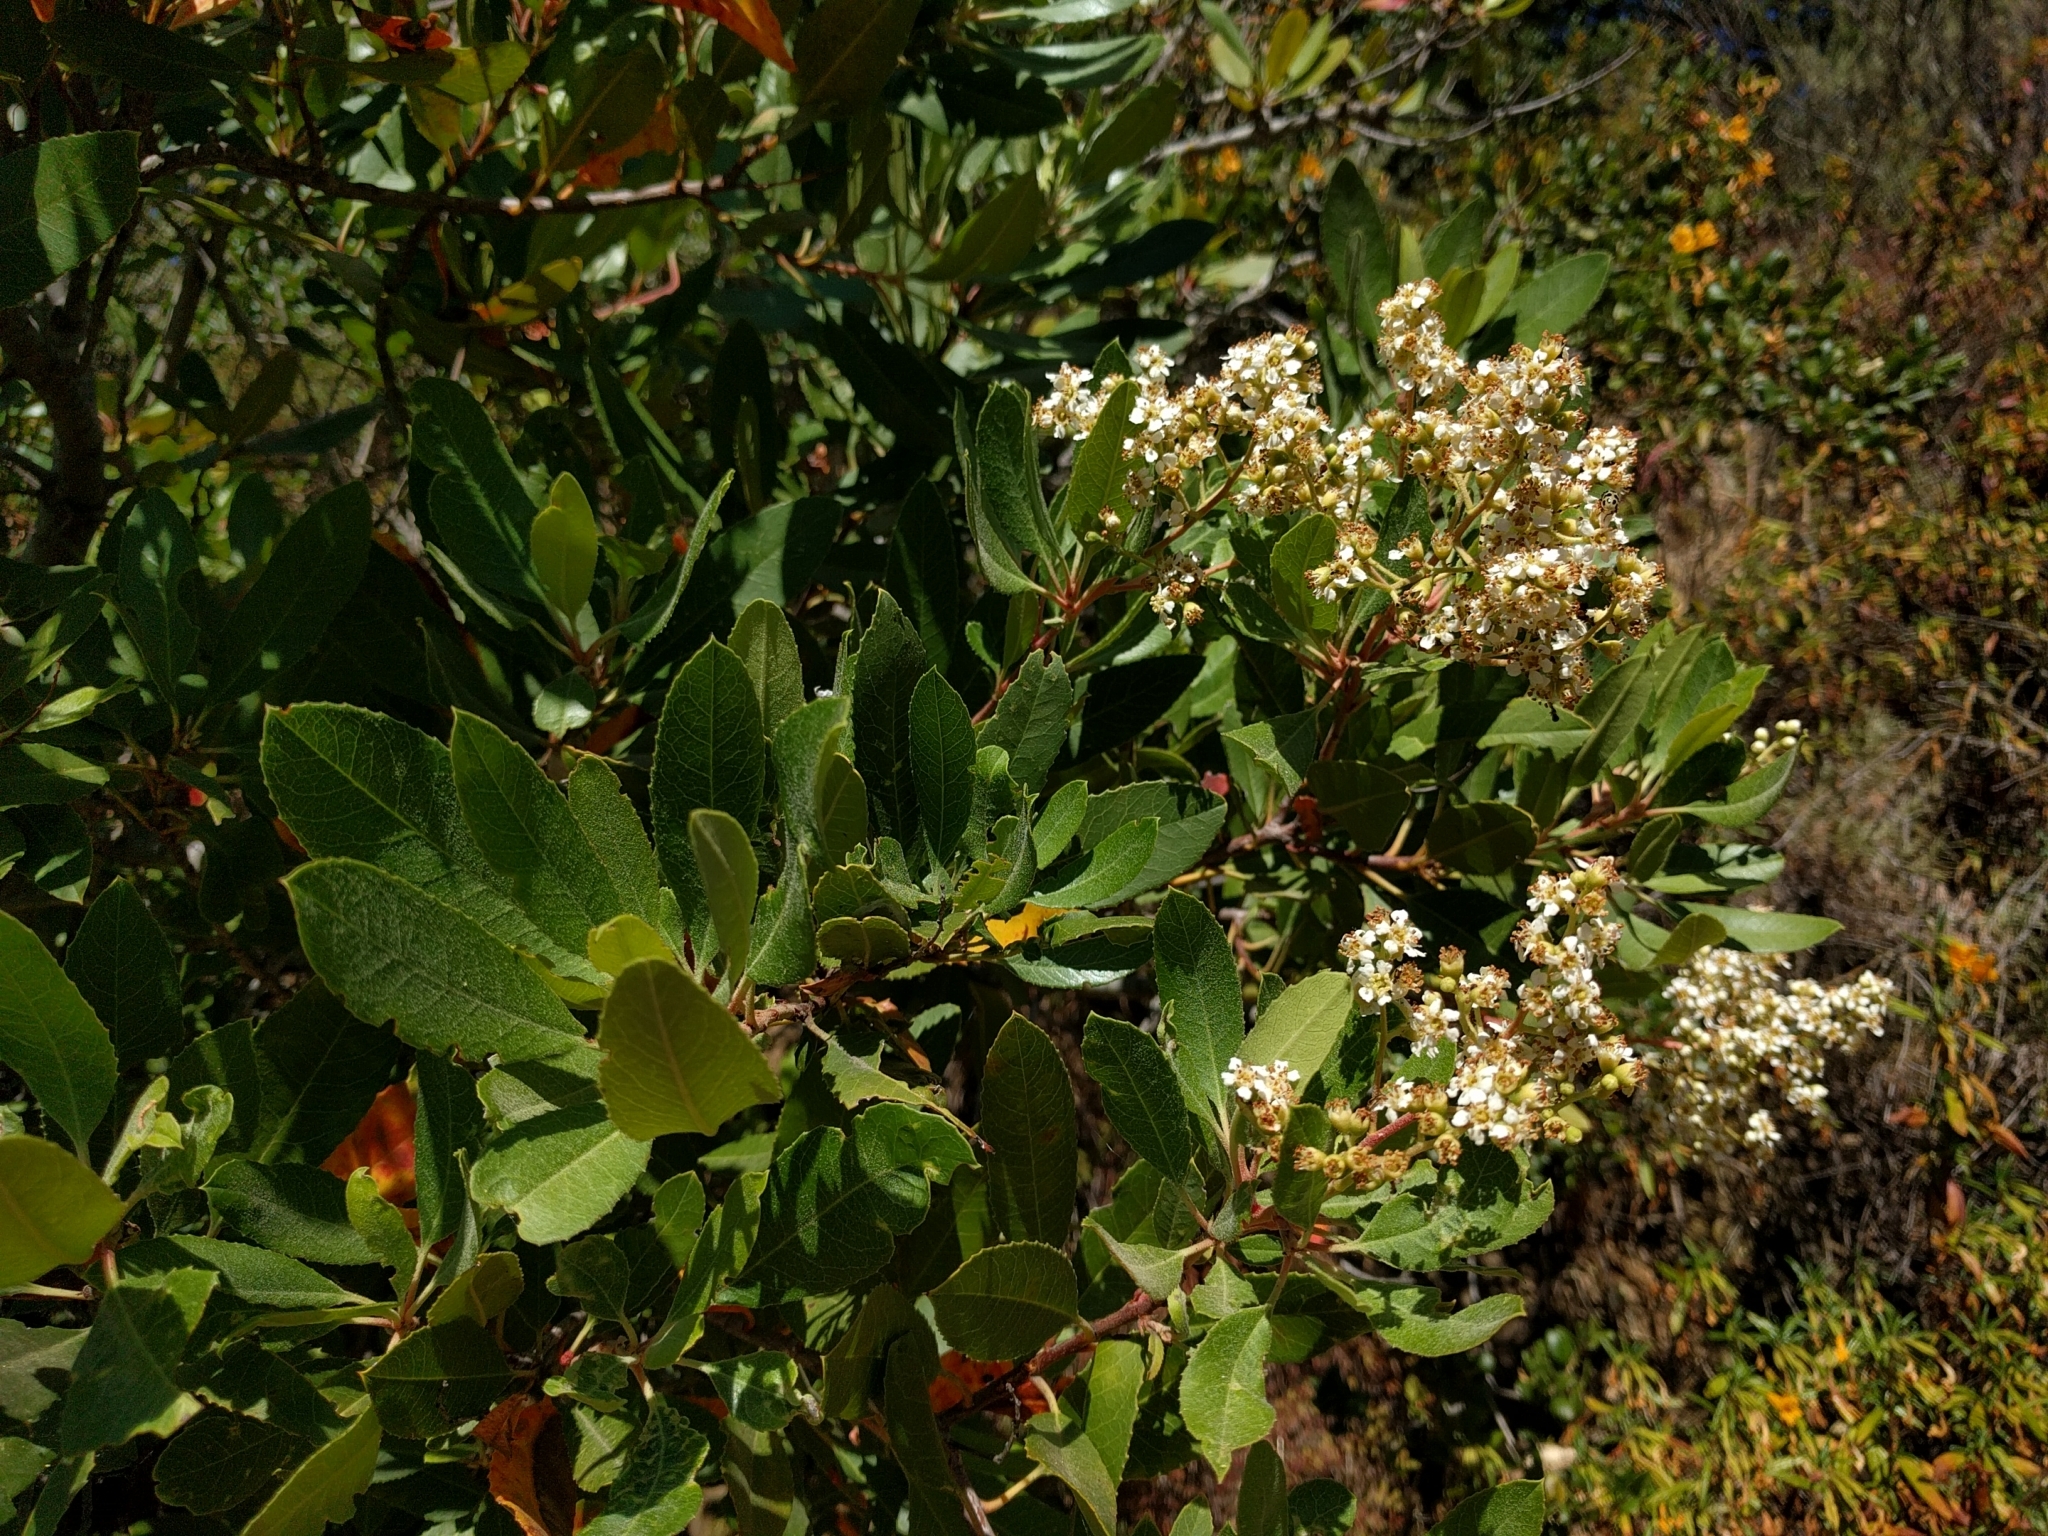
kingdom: Plantae
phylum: Tracheophyta
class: Magnoliopsida
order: Rosales
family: Rosaceae
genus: Heteromeles
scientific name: Heteromeles arbutifolia
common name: California-holly
